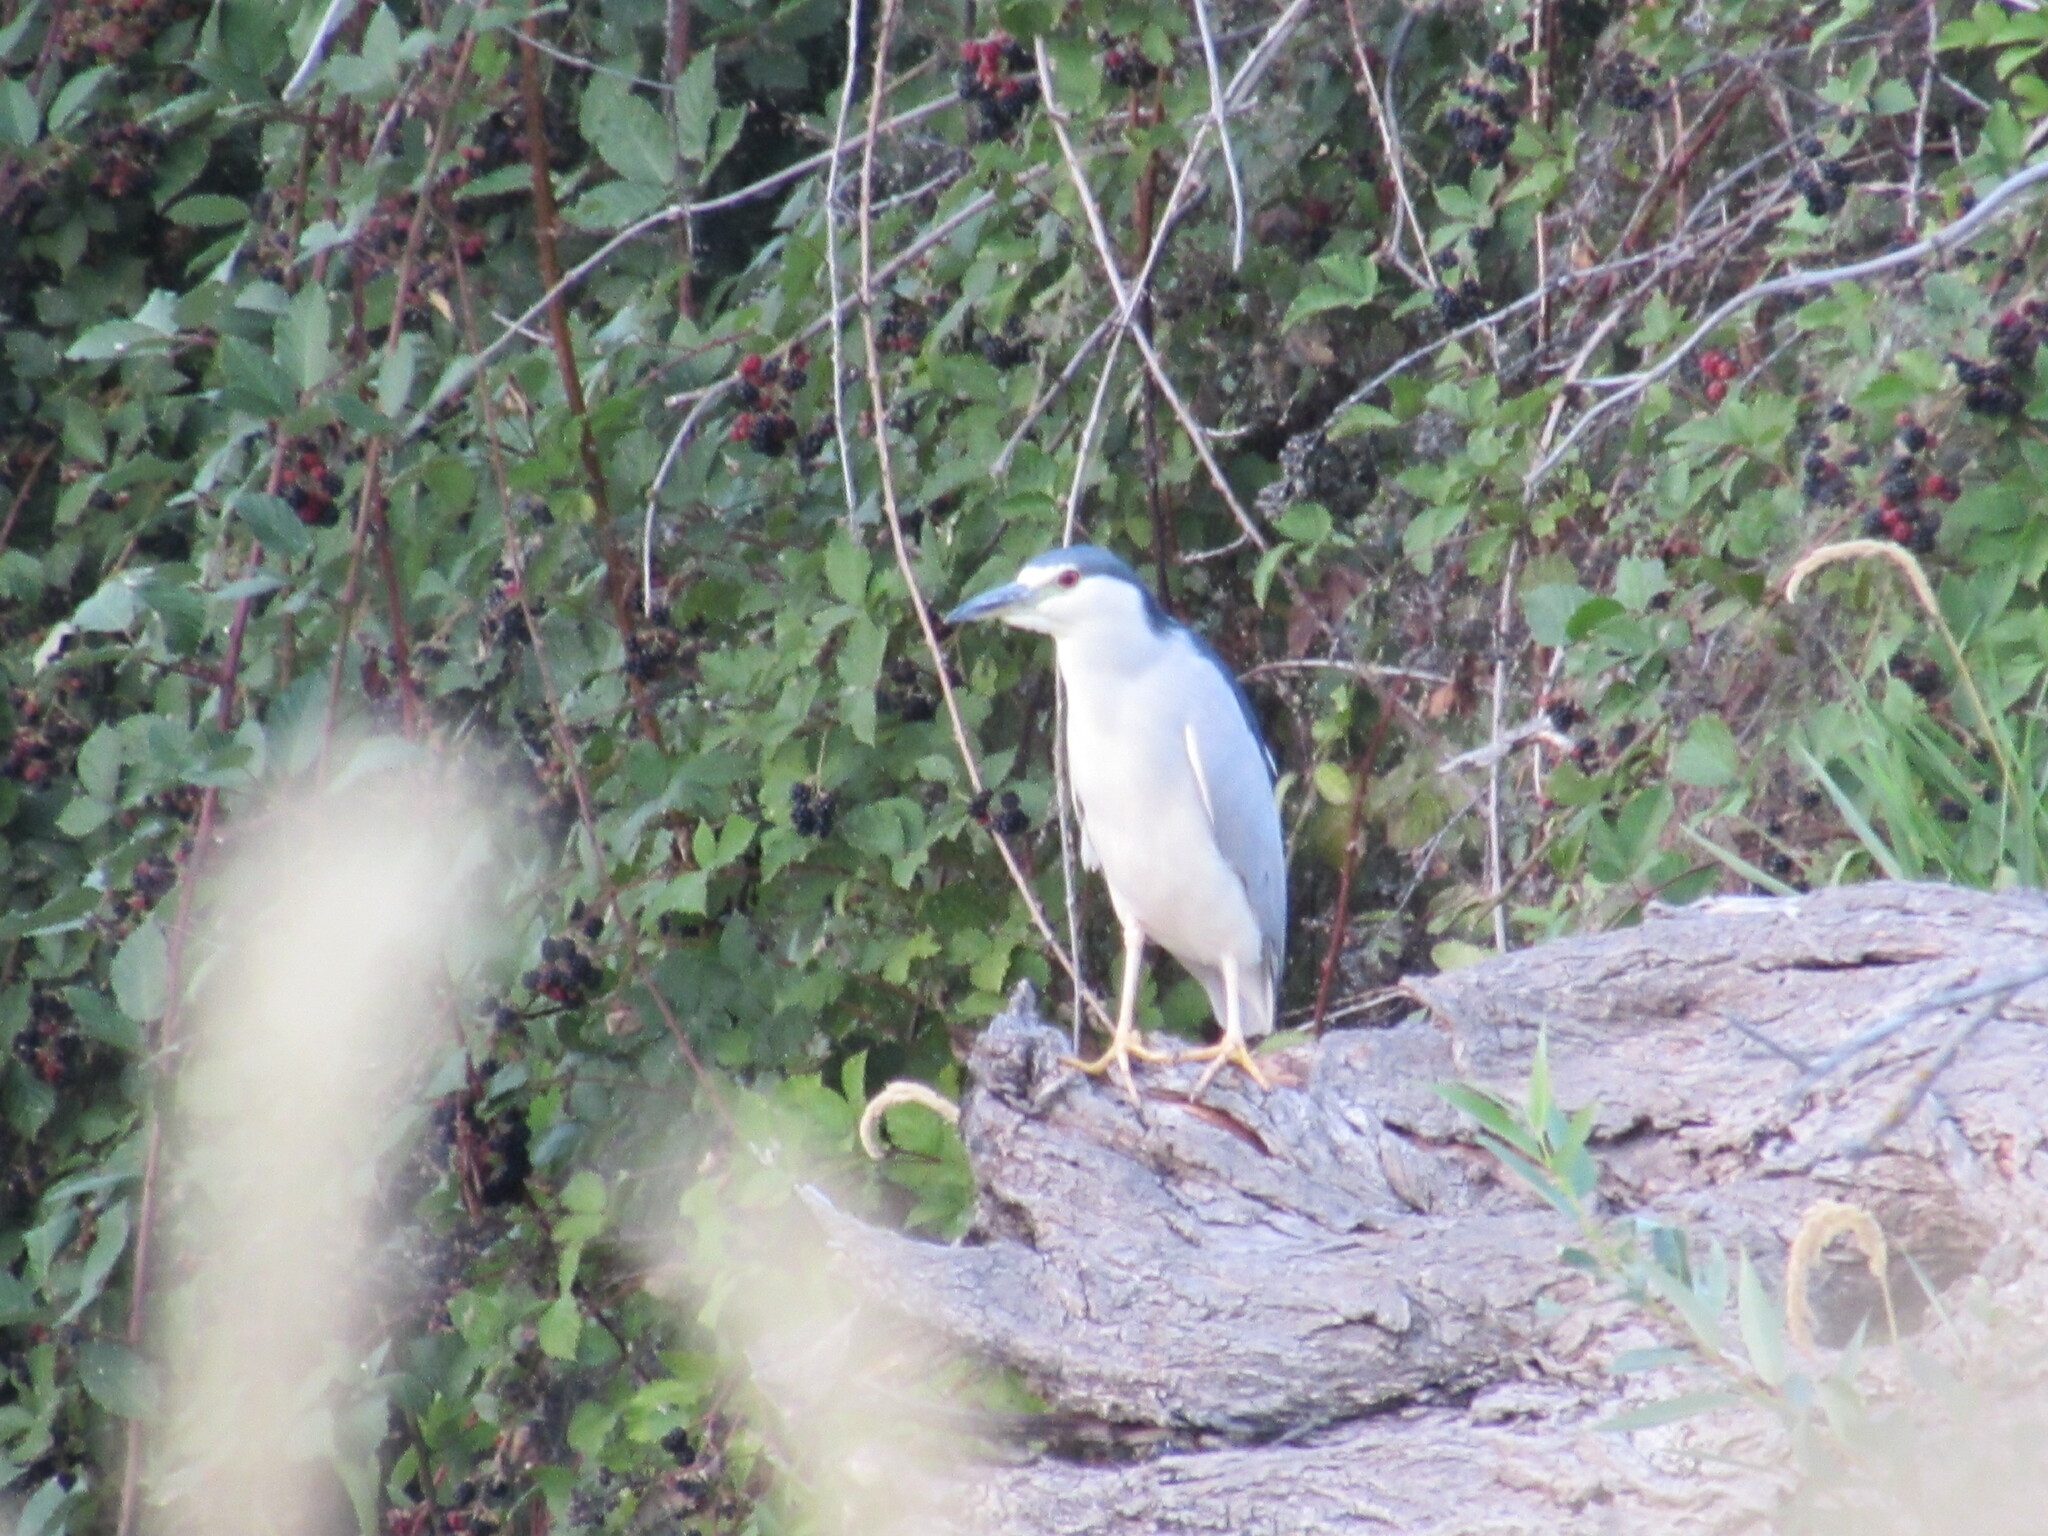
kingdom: Animalia
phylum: Chordata
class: Aves
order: Pelecaniformes
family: Ardeidae
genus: Nycticorax
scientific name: Nycticorax nycticorax
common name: Black-crowned night heron
